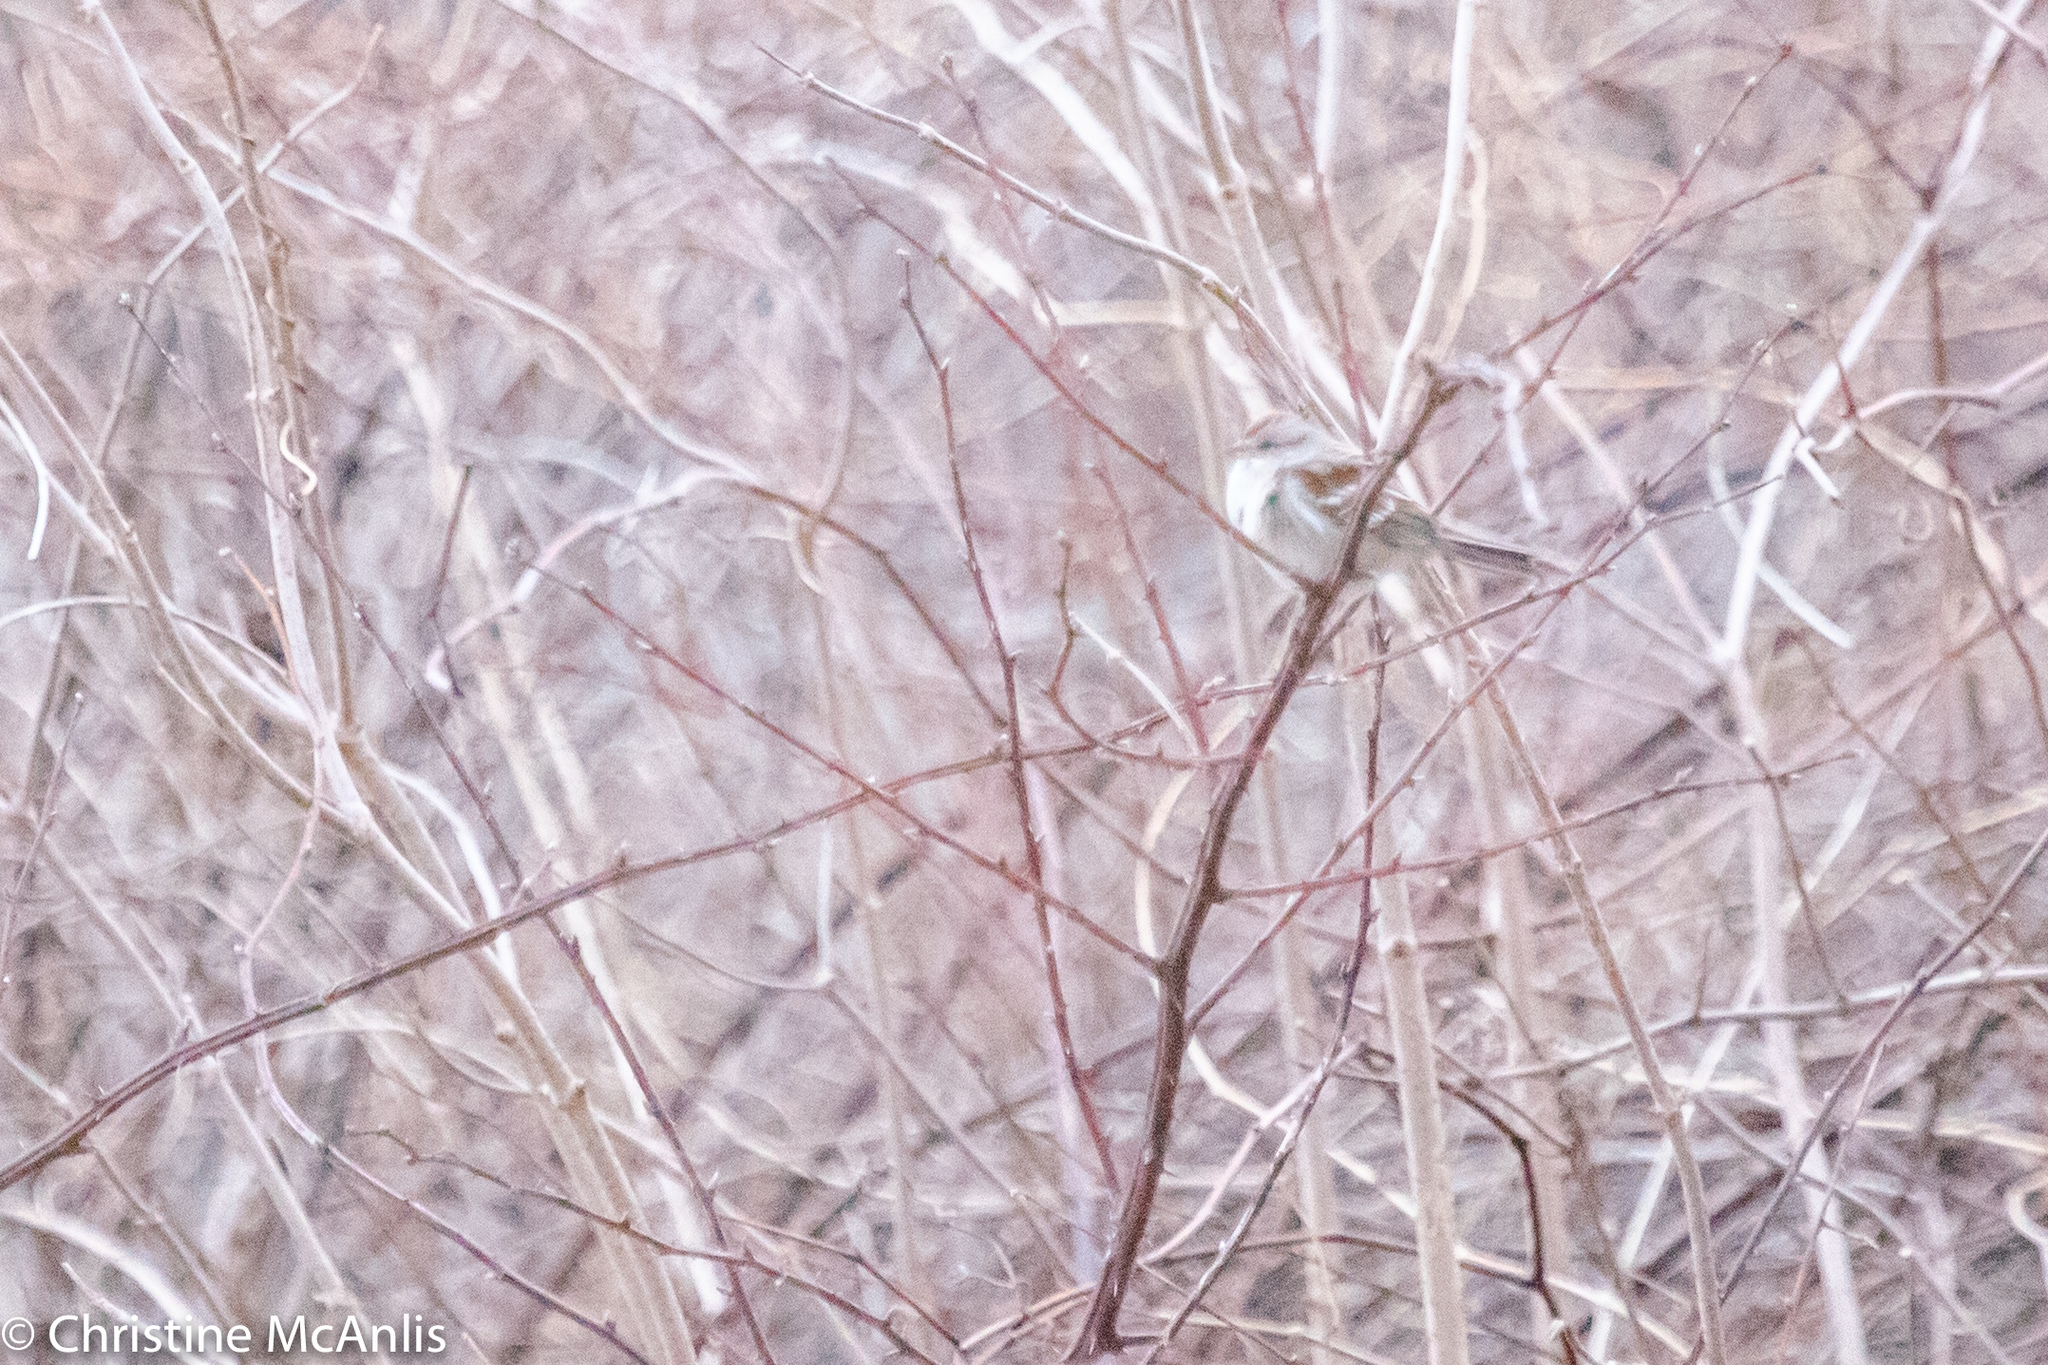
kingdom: Animalia
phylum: Chordata
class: Aves
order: Passeriformes
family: Passerellidae
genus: Spizelloides
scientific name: Spizelloides arborea
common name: American tree sparrow
